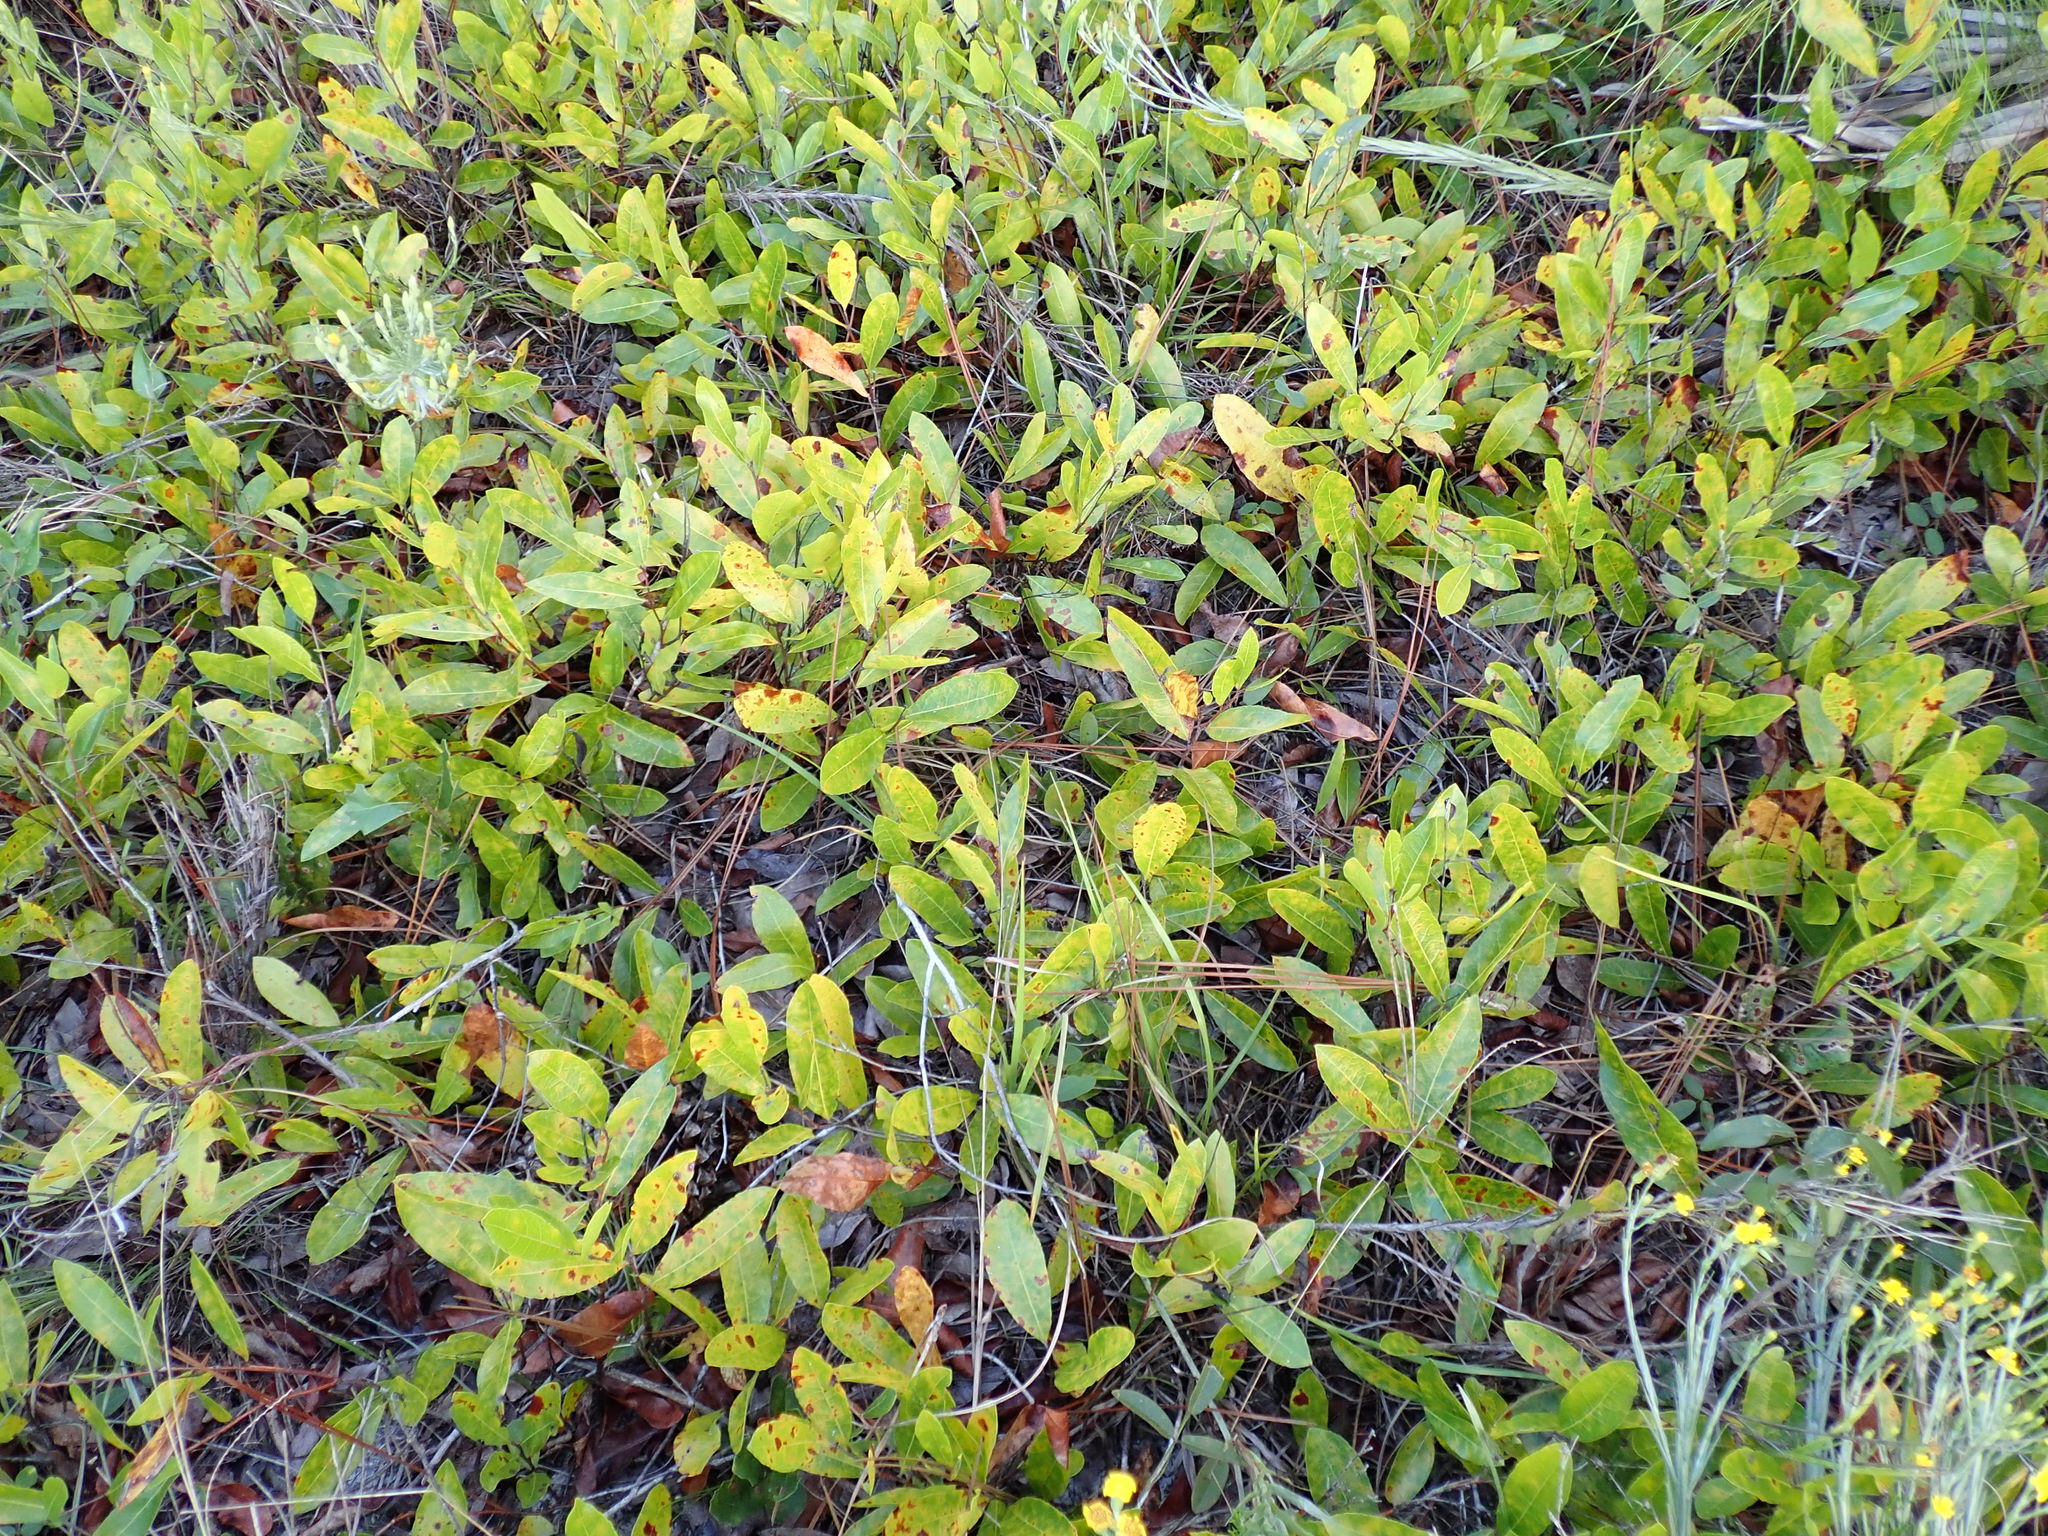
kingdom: Plantae
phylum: Tracheophyta
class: Magnoliopsida
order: Malpighiales
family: Chrysobalanaceae
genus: Geobalanus
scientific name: Geobalanus oblongifolius
